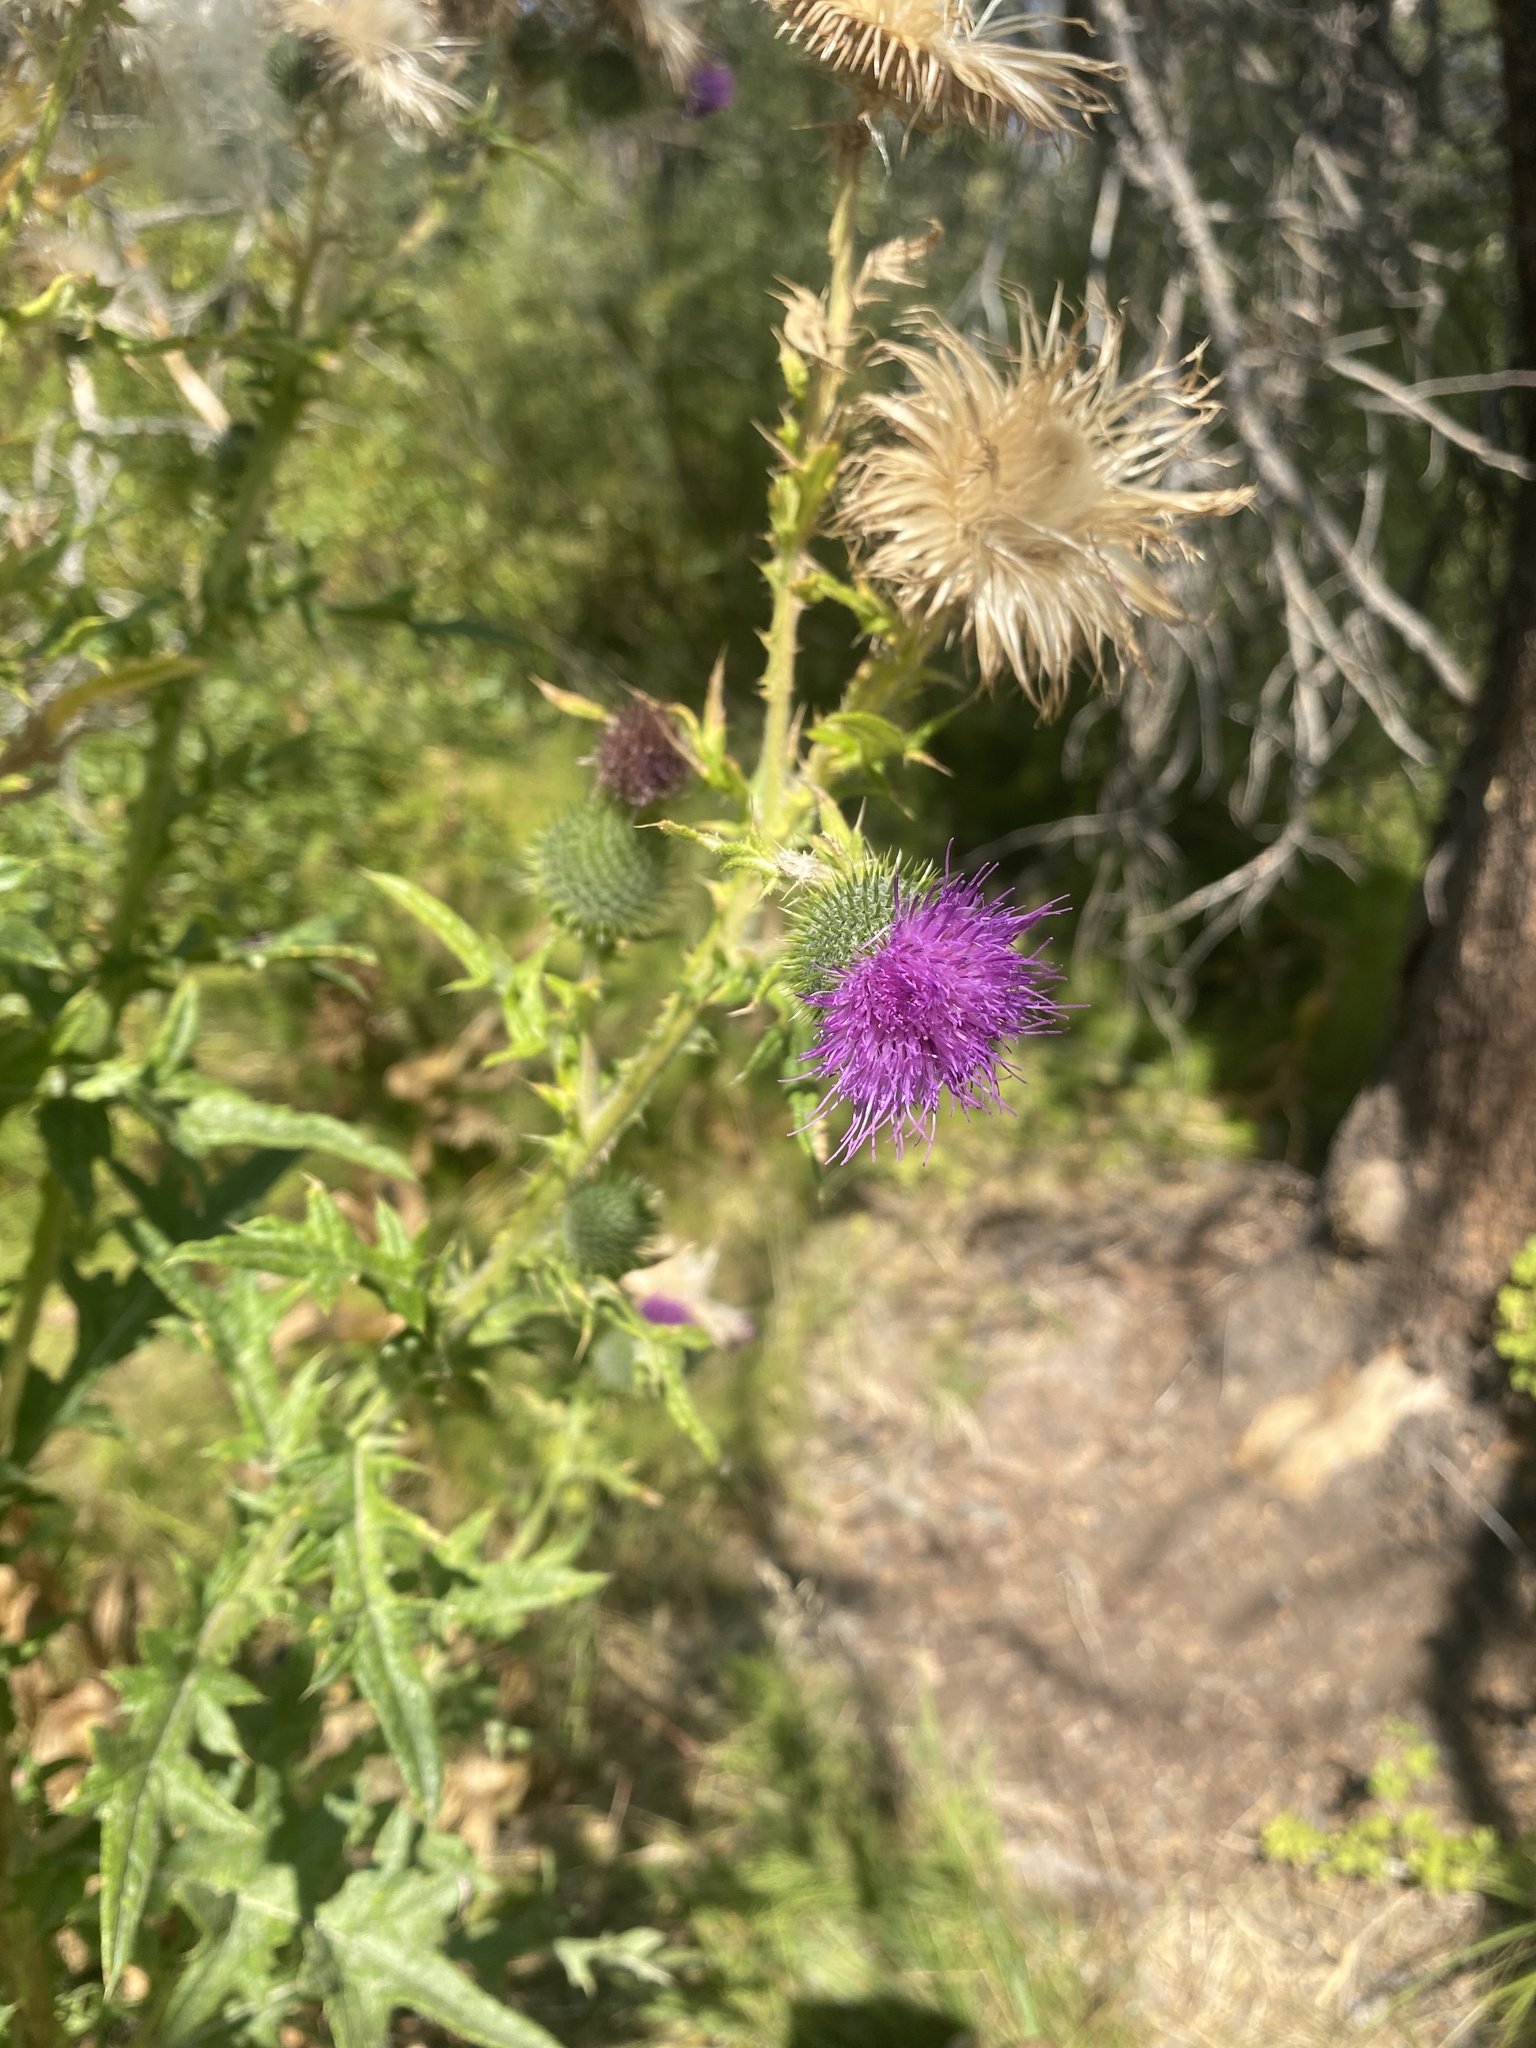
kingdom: Plantae
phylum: Tracheophyta
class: Magnoliopsida
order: Asterales
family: Asteraceae
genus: Cirsium
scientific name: Cirsium vulgare
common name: Bull thistle
